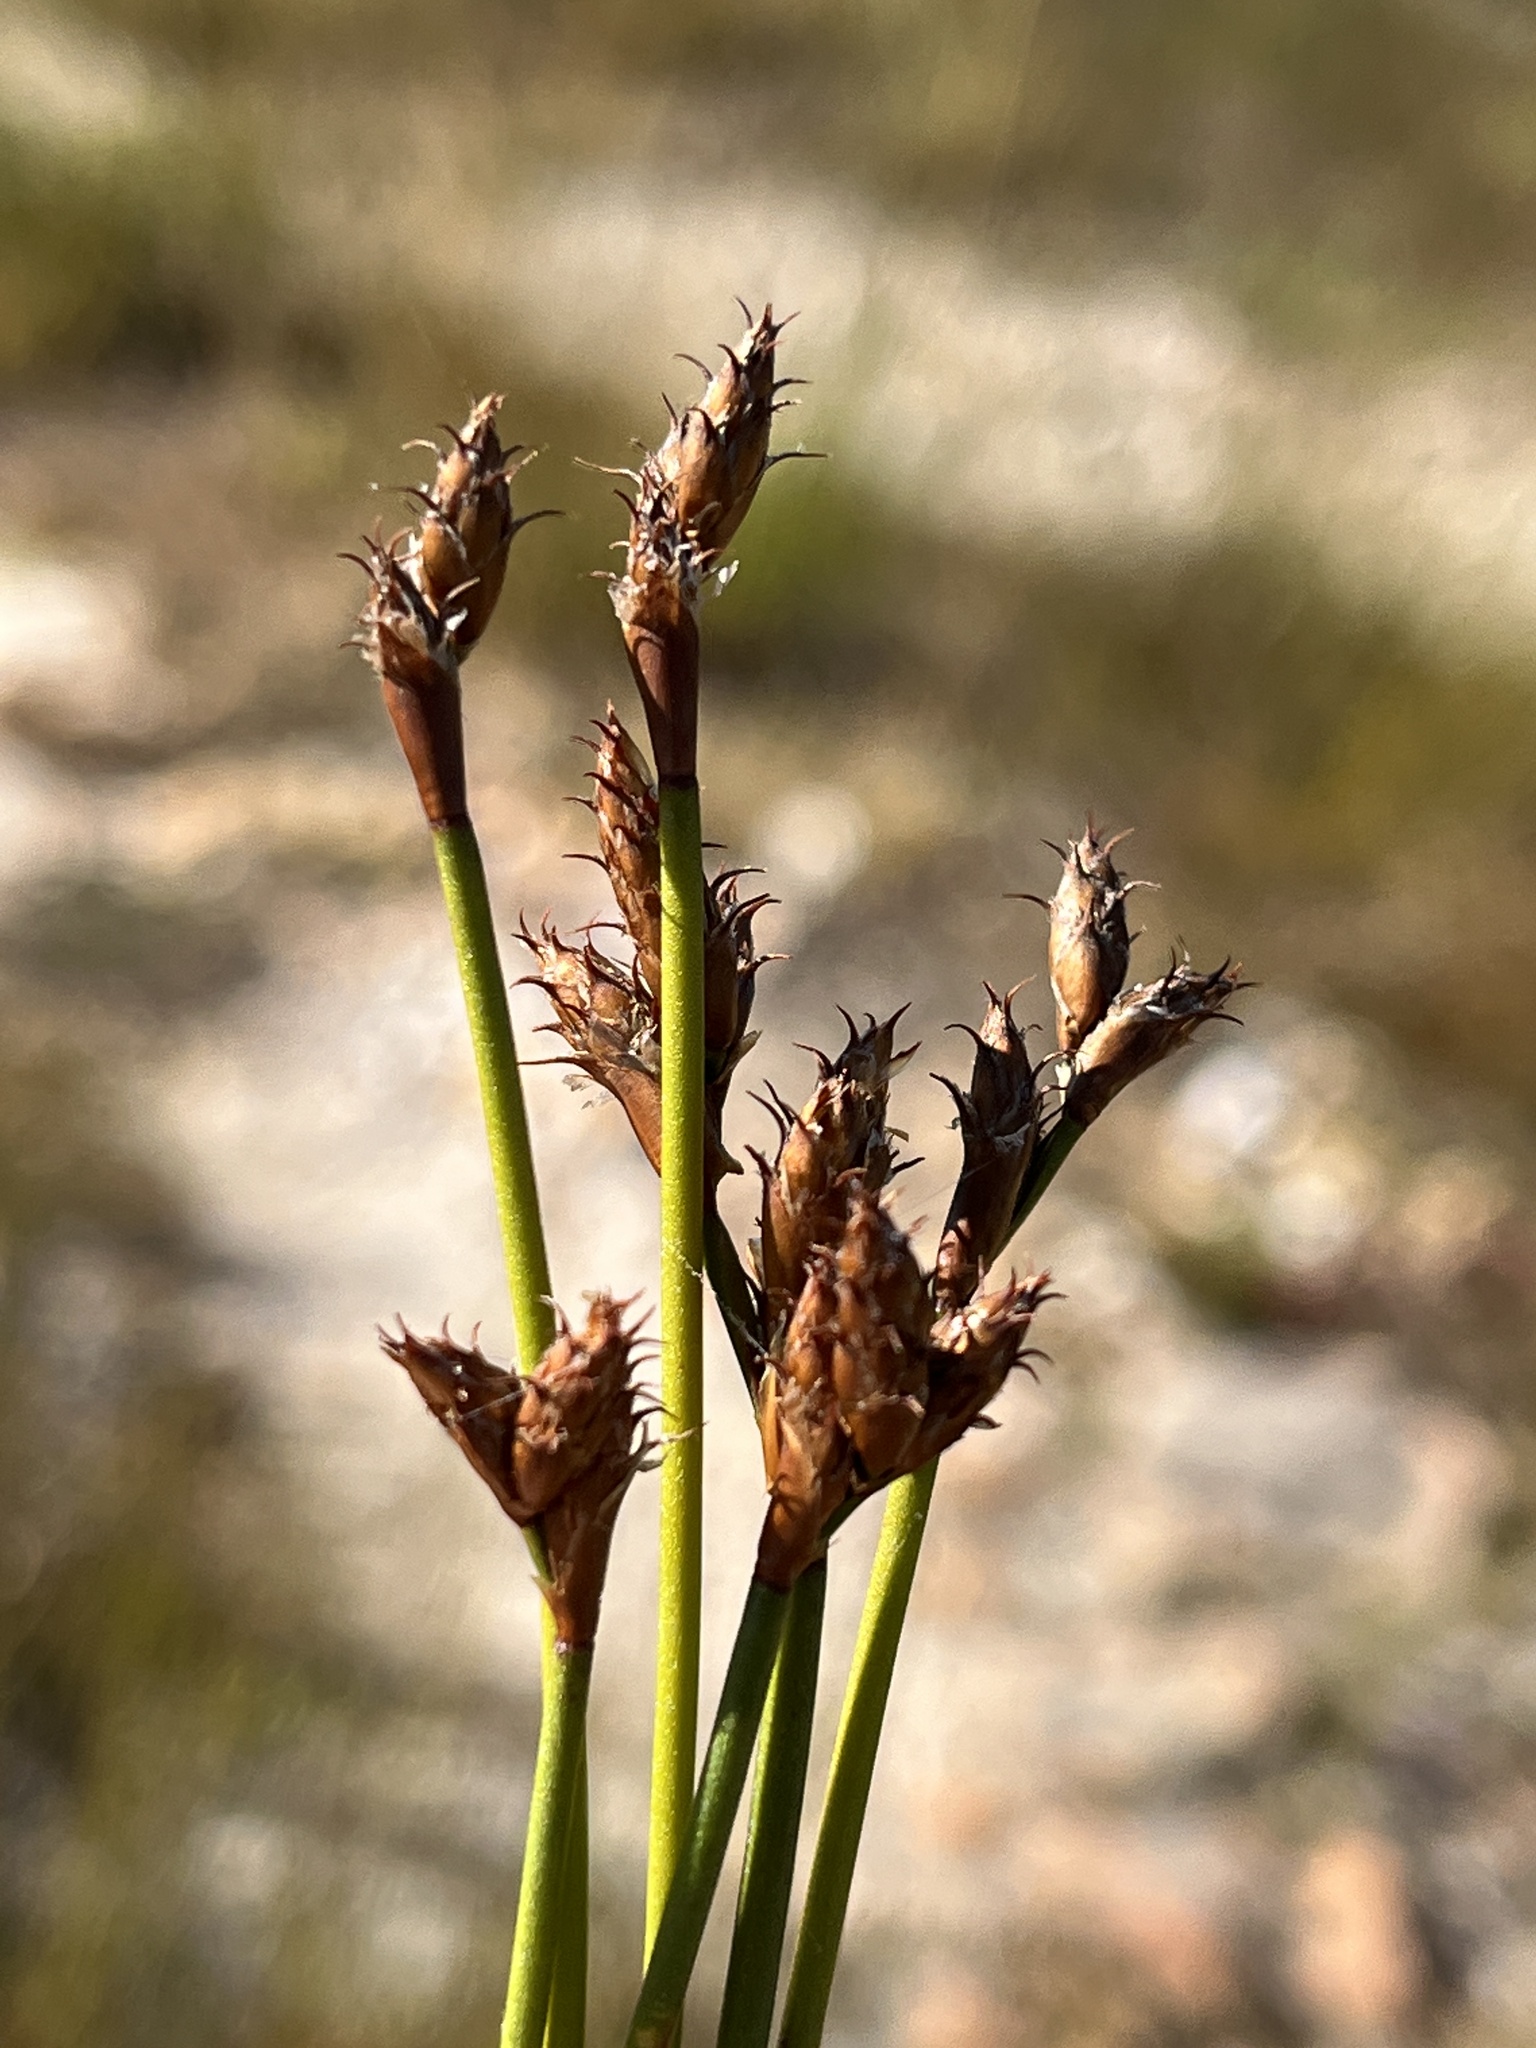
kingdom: Plantae
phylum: Tracheophyta
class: Liliopsida
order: Poales
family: Restionaceae
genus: Restio
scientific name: Restio capensis
